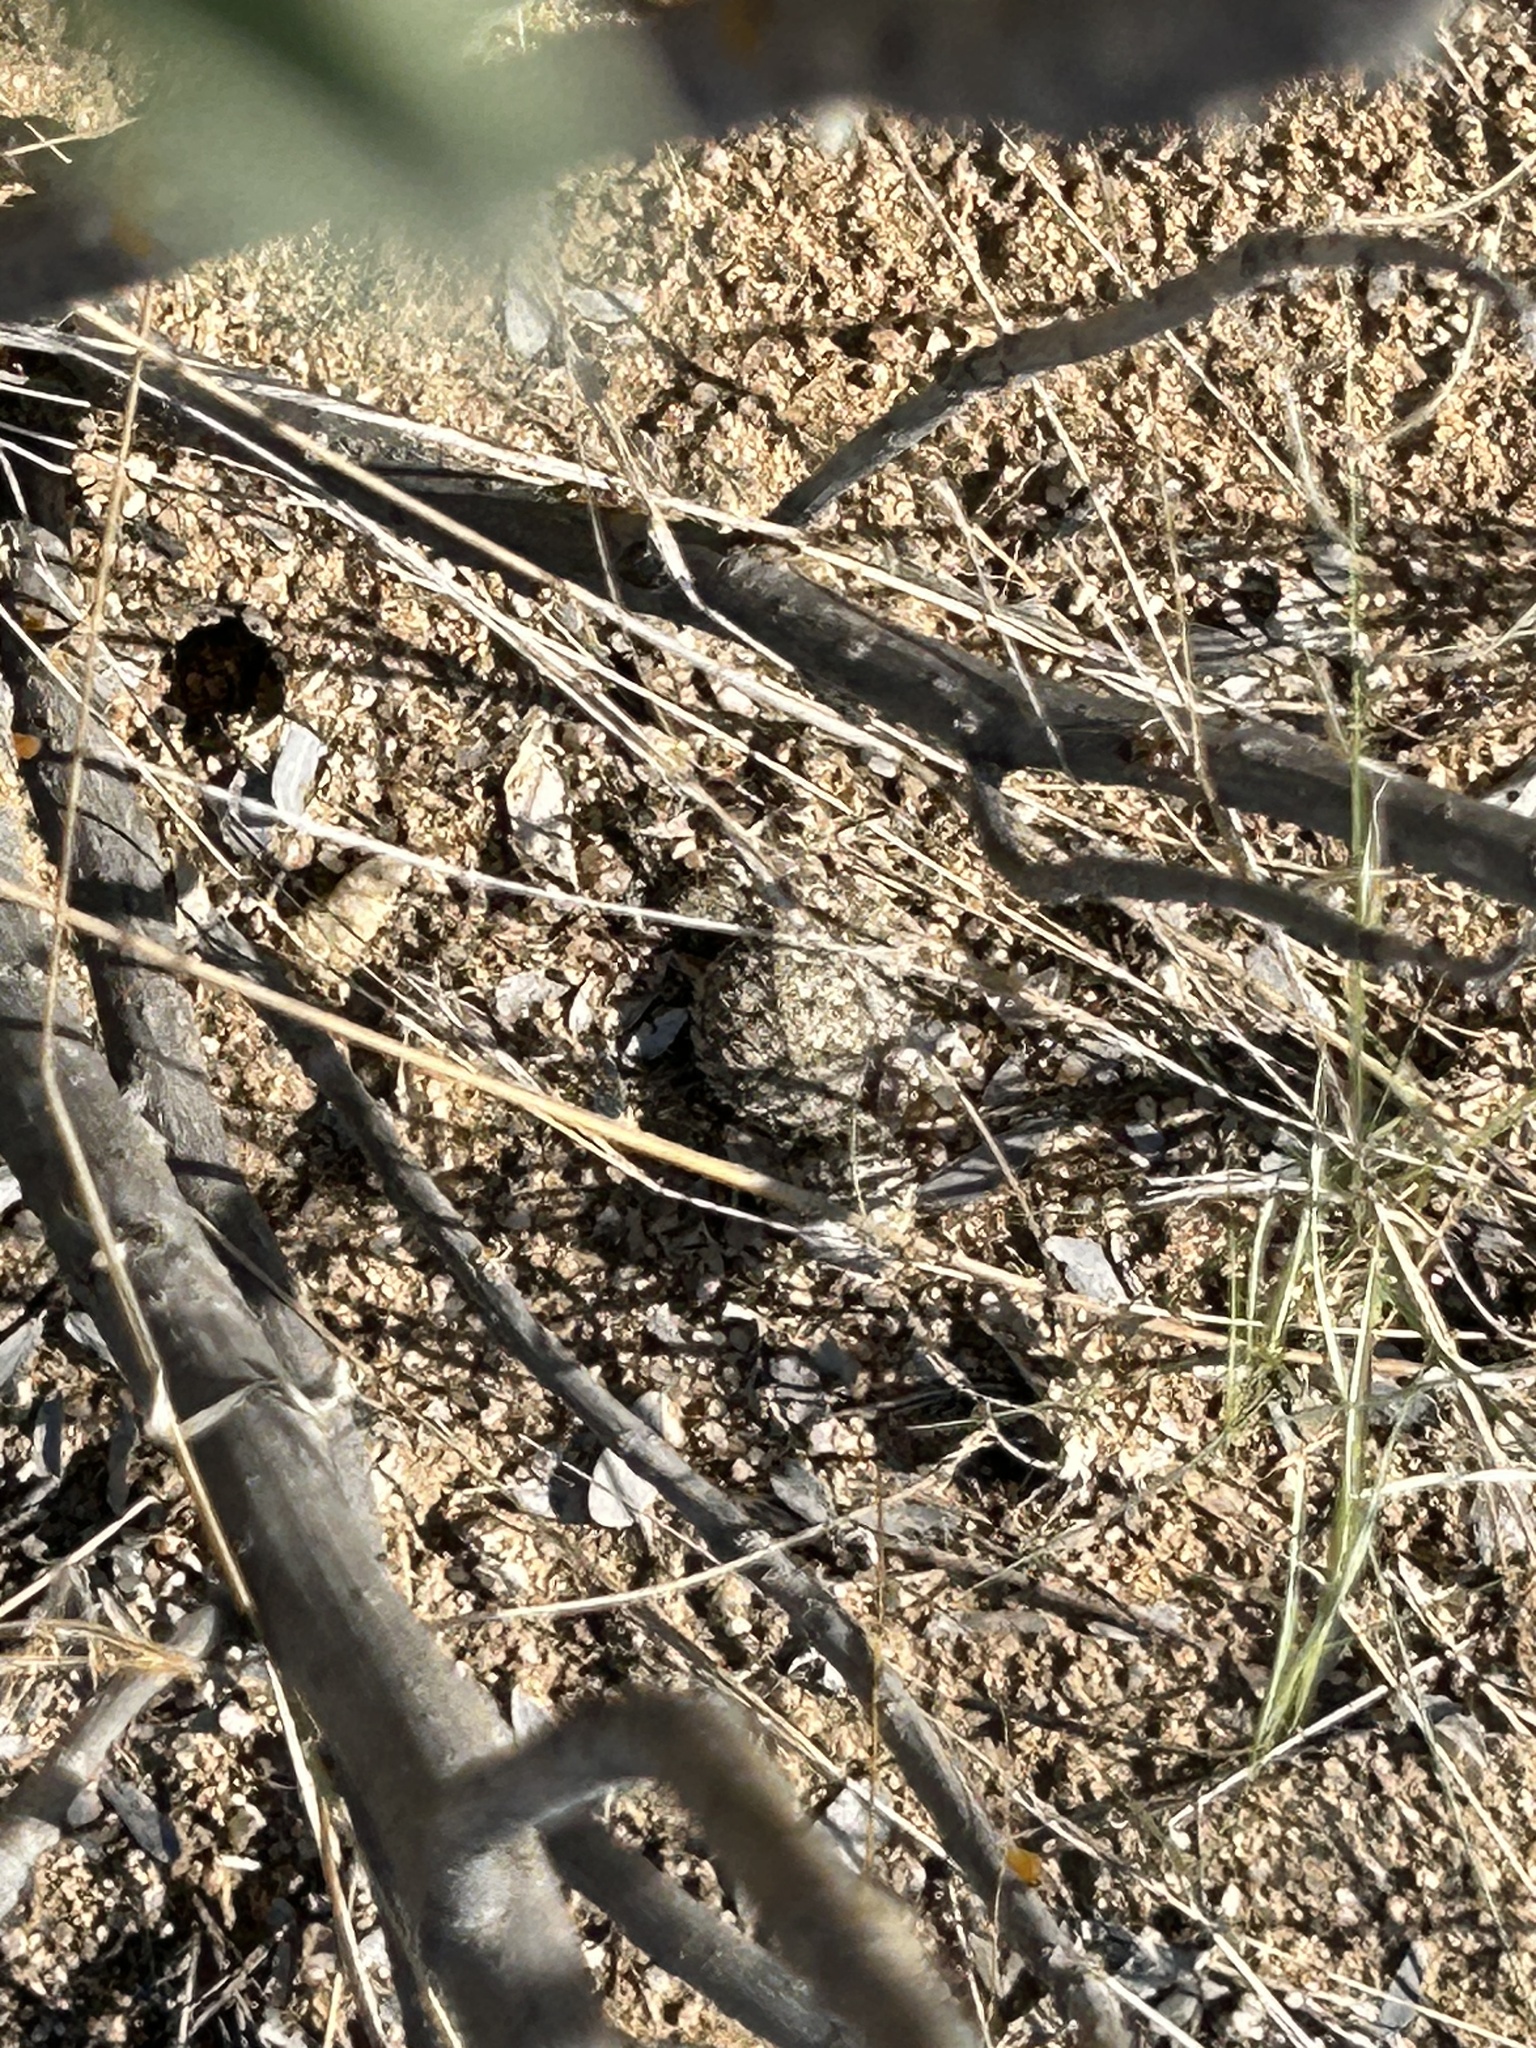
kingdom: Animalia
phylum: Chordata
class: Squamata
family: Phrynosomatidae
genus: Phrynosoma
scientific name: Phrynosoma solare
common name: Regal horned lizard
